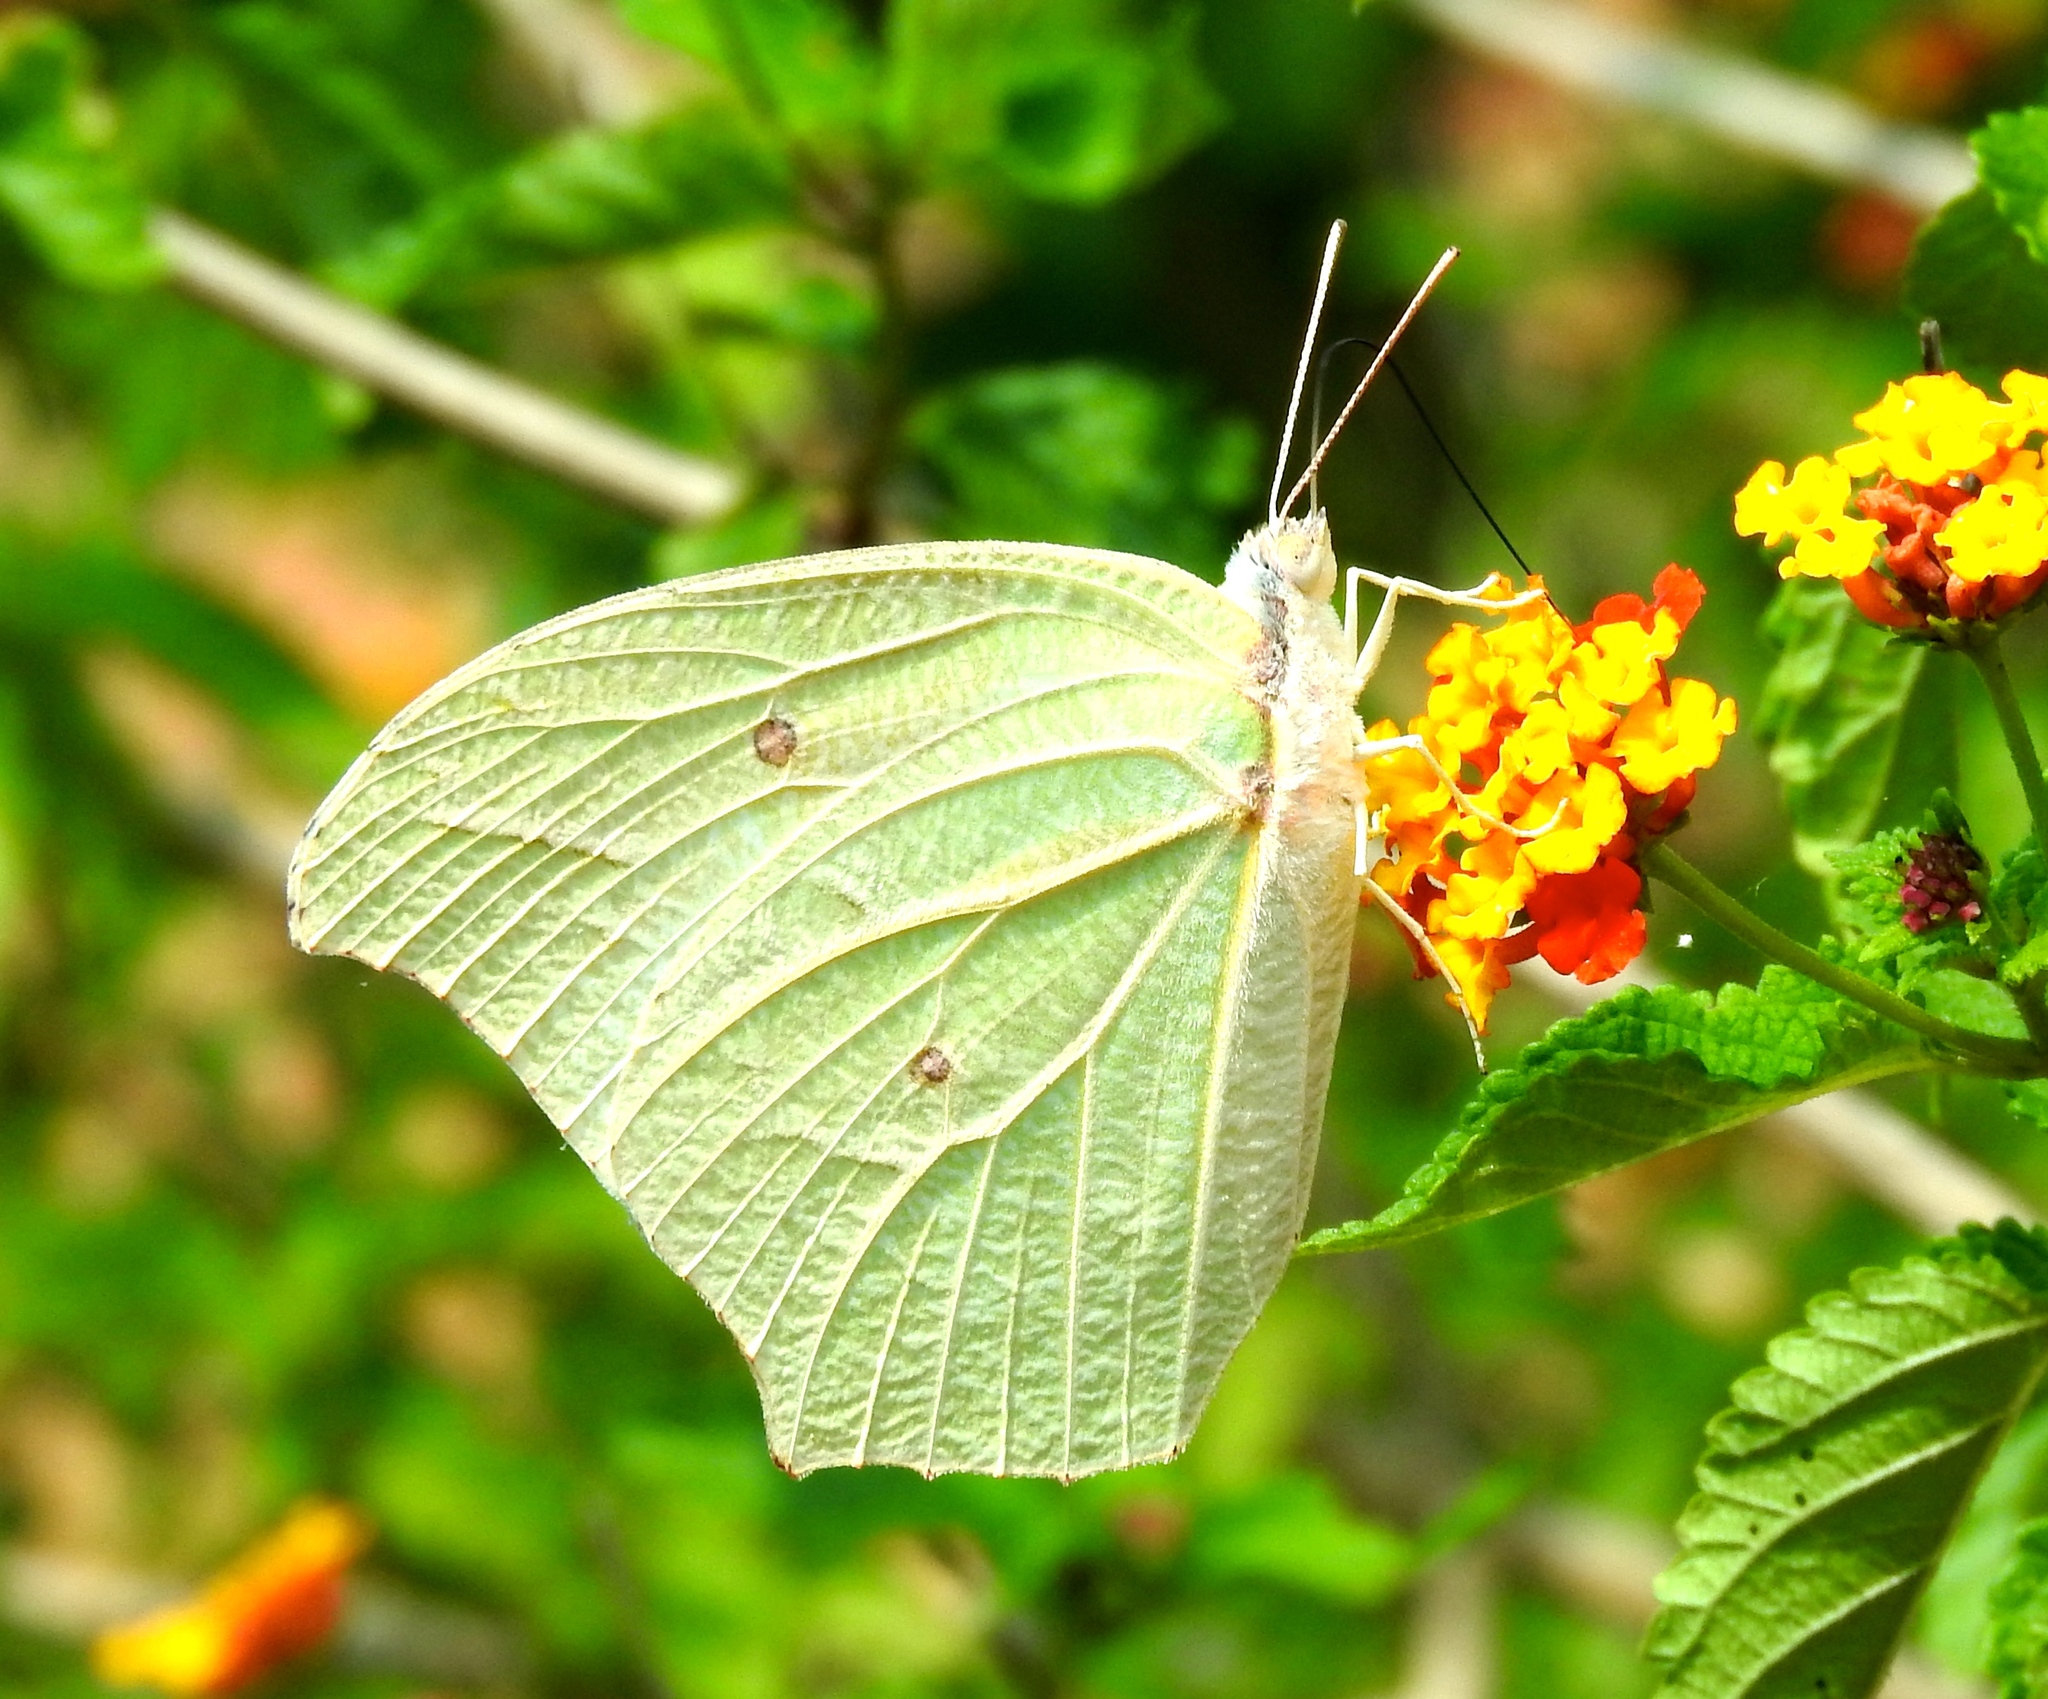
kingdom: Animalia
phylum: Arthropoda
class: Insecta
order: Lepidoptera
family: Pieridae
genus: Anteos
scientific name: Anteos clorinde
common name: White angled sulphur
